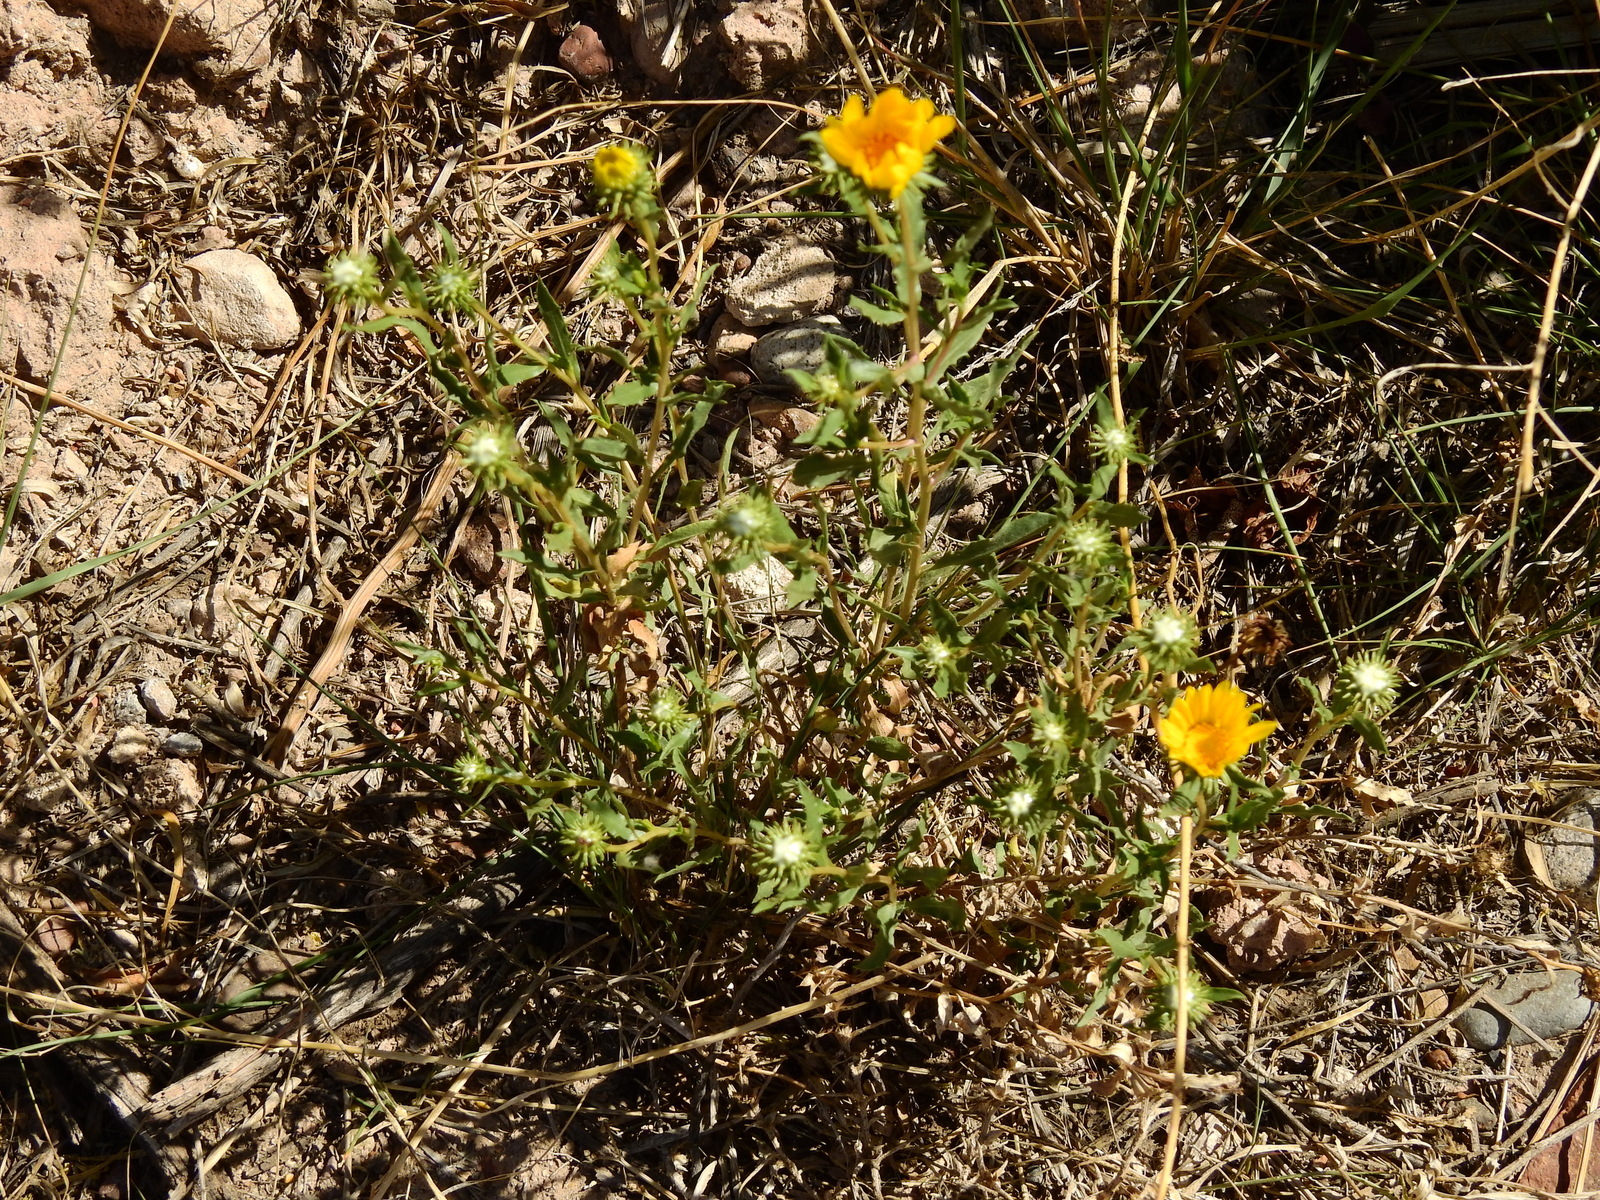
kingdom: Plantae
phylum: Tracheophyta
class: Magnoliopsida
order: Asterales
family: Asteraceae
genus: Grindelia
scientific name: Grindelia pulchella
